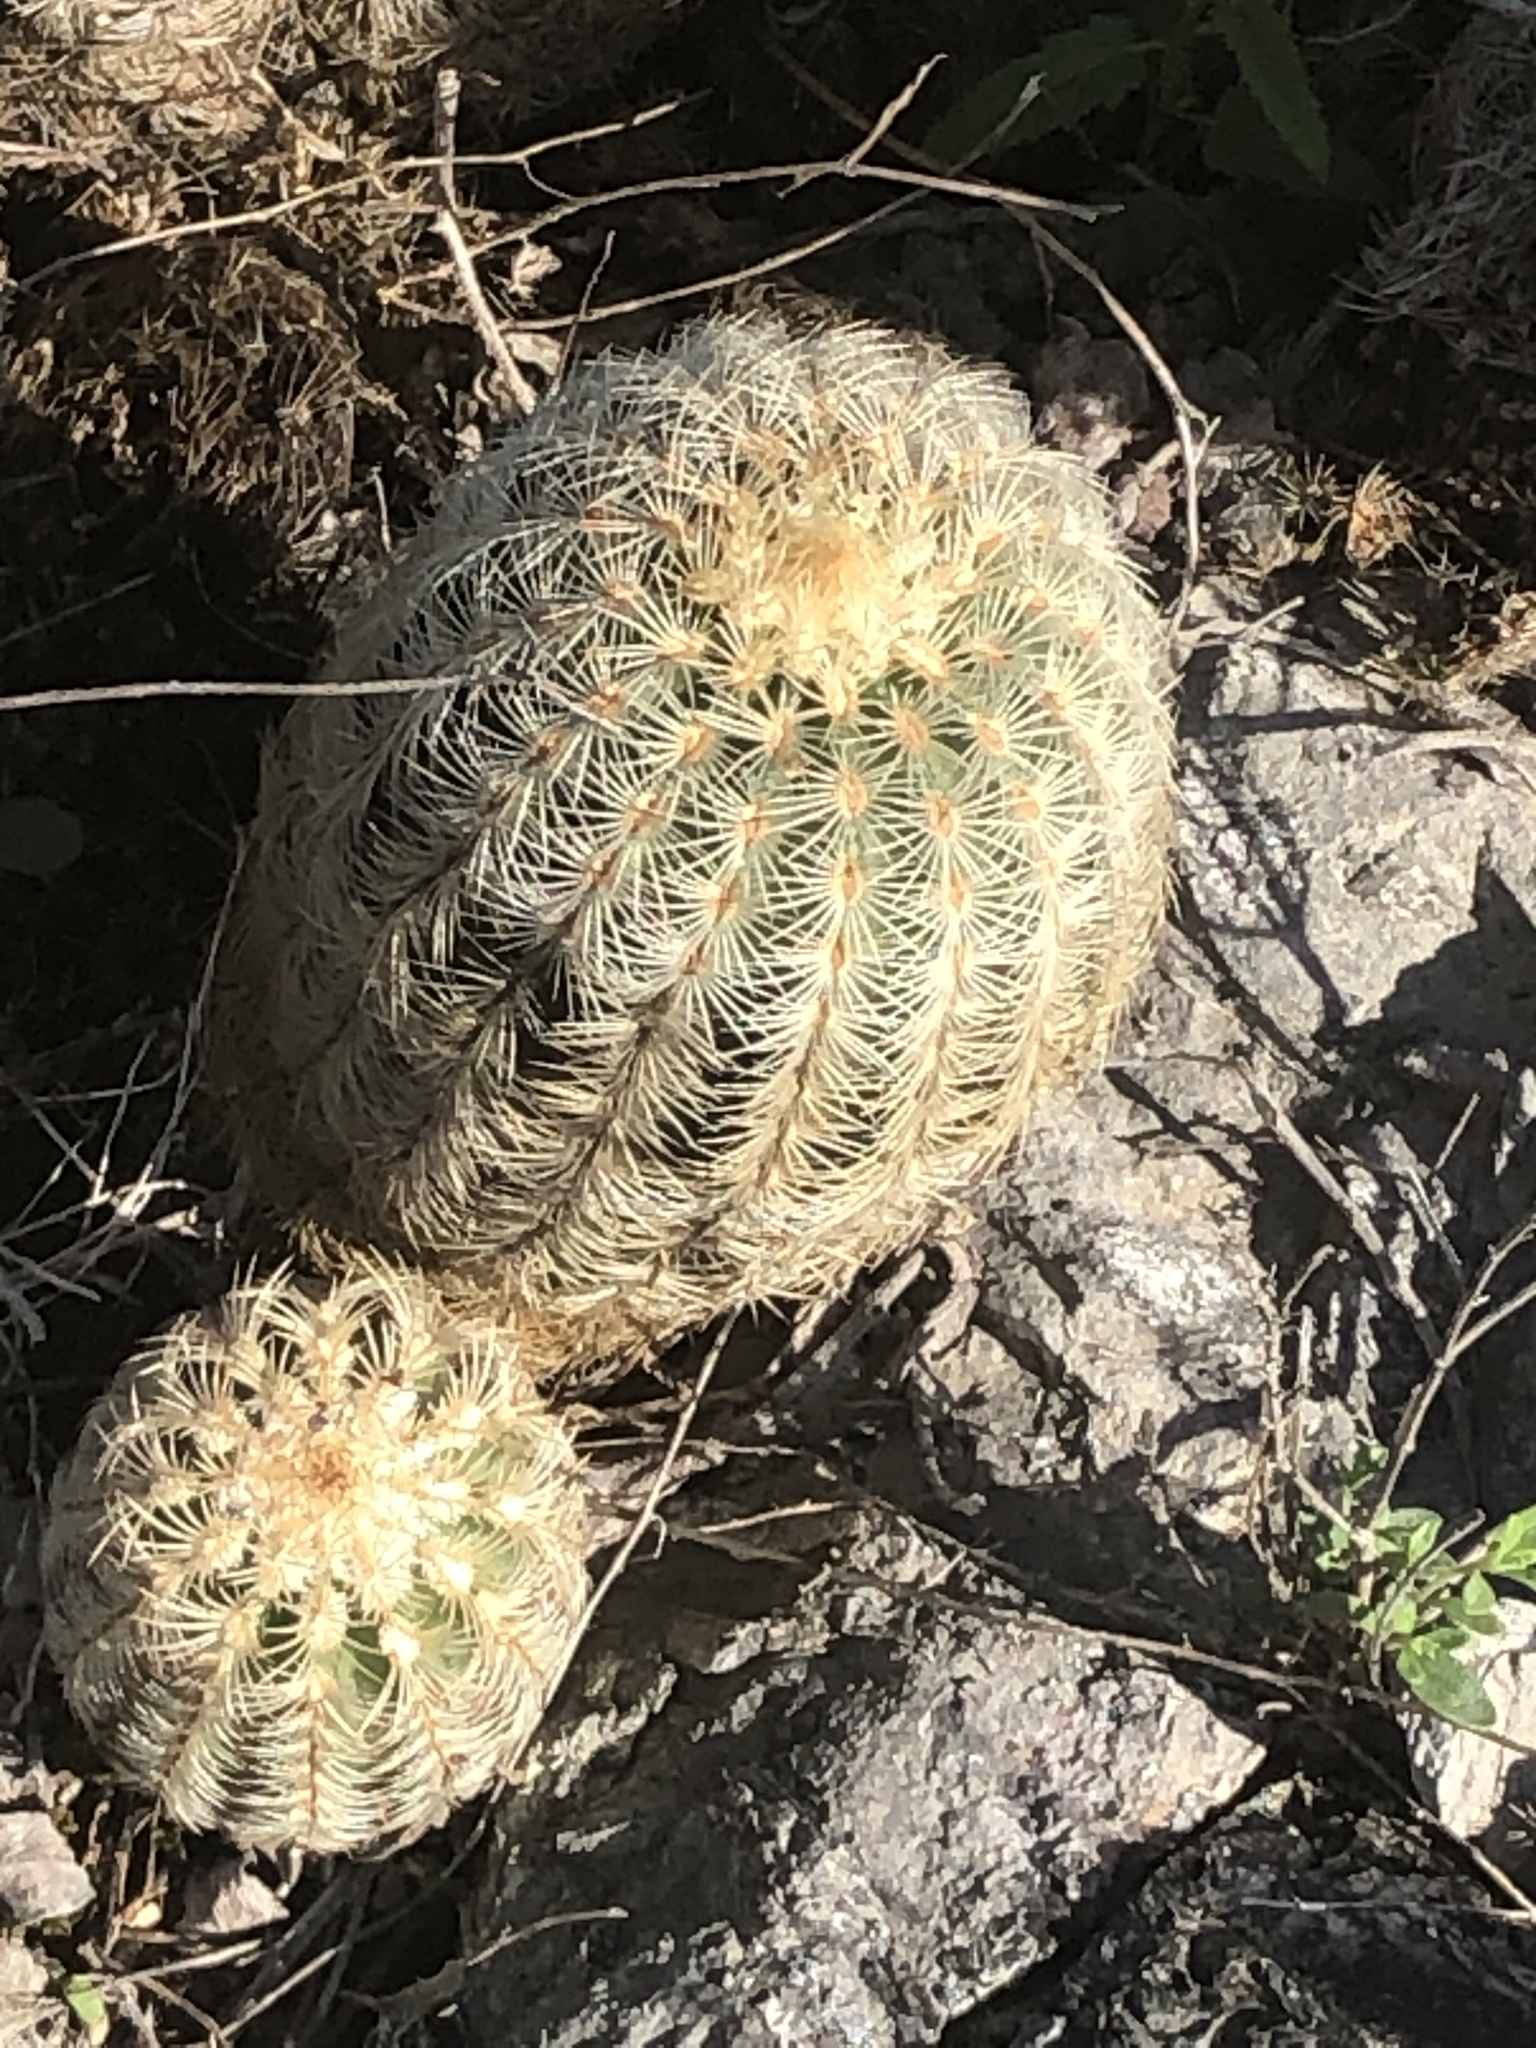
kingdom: Plantae
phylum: Tracheophyta
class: Magnoliopsida
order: Caryophyllales
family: Cactaceae
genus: Echinocereus
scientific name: Echinocereus reichenbachii
